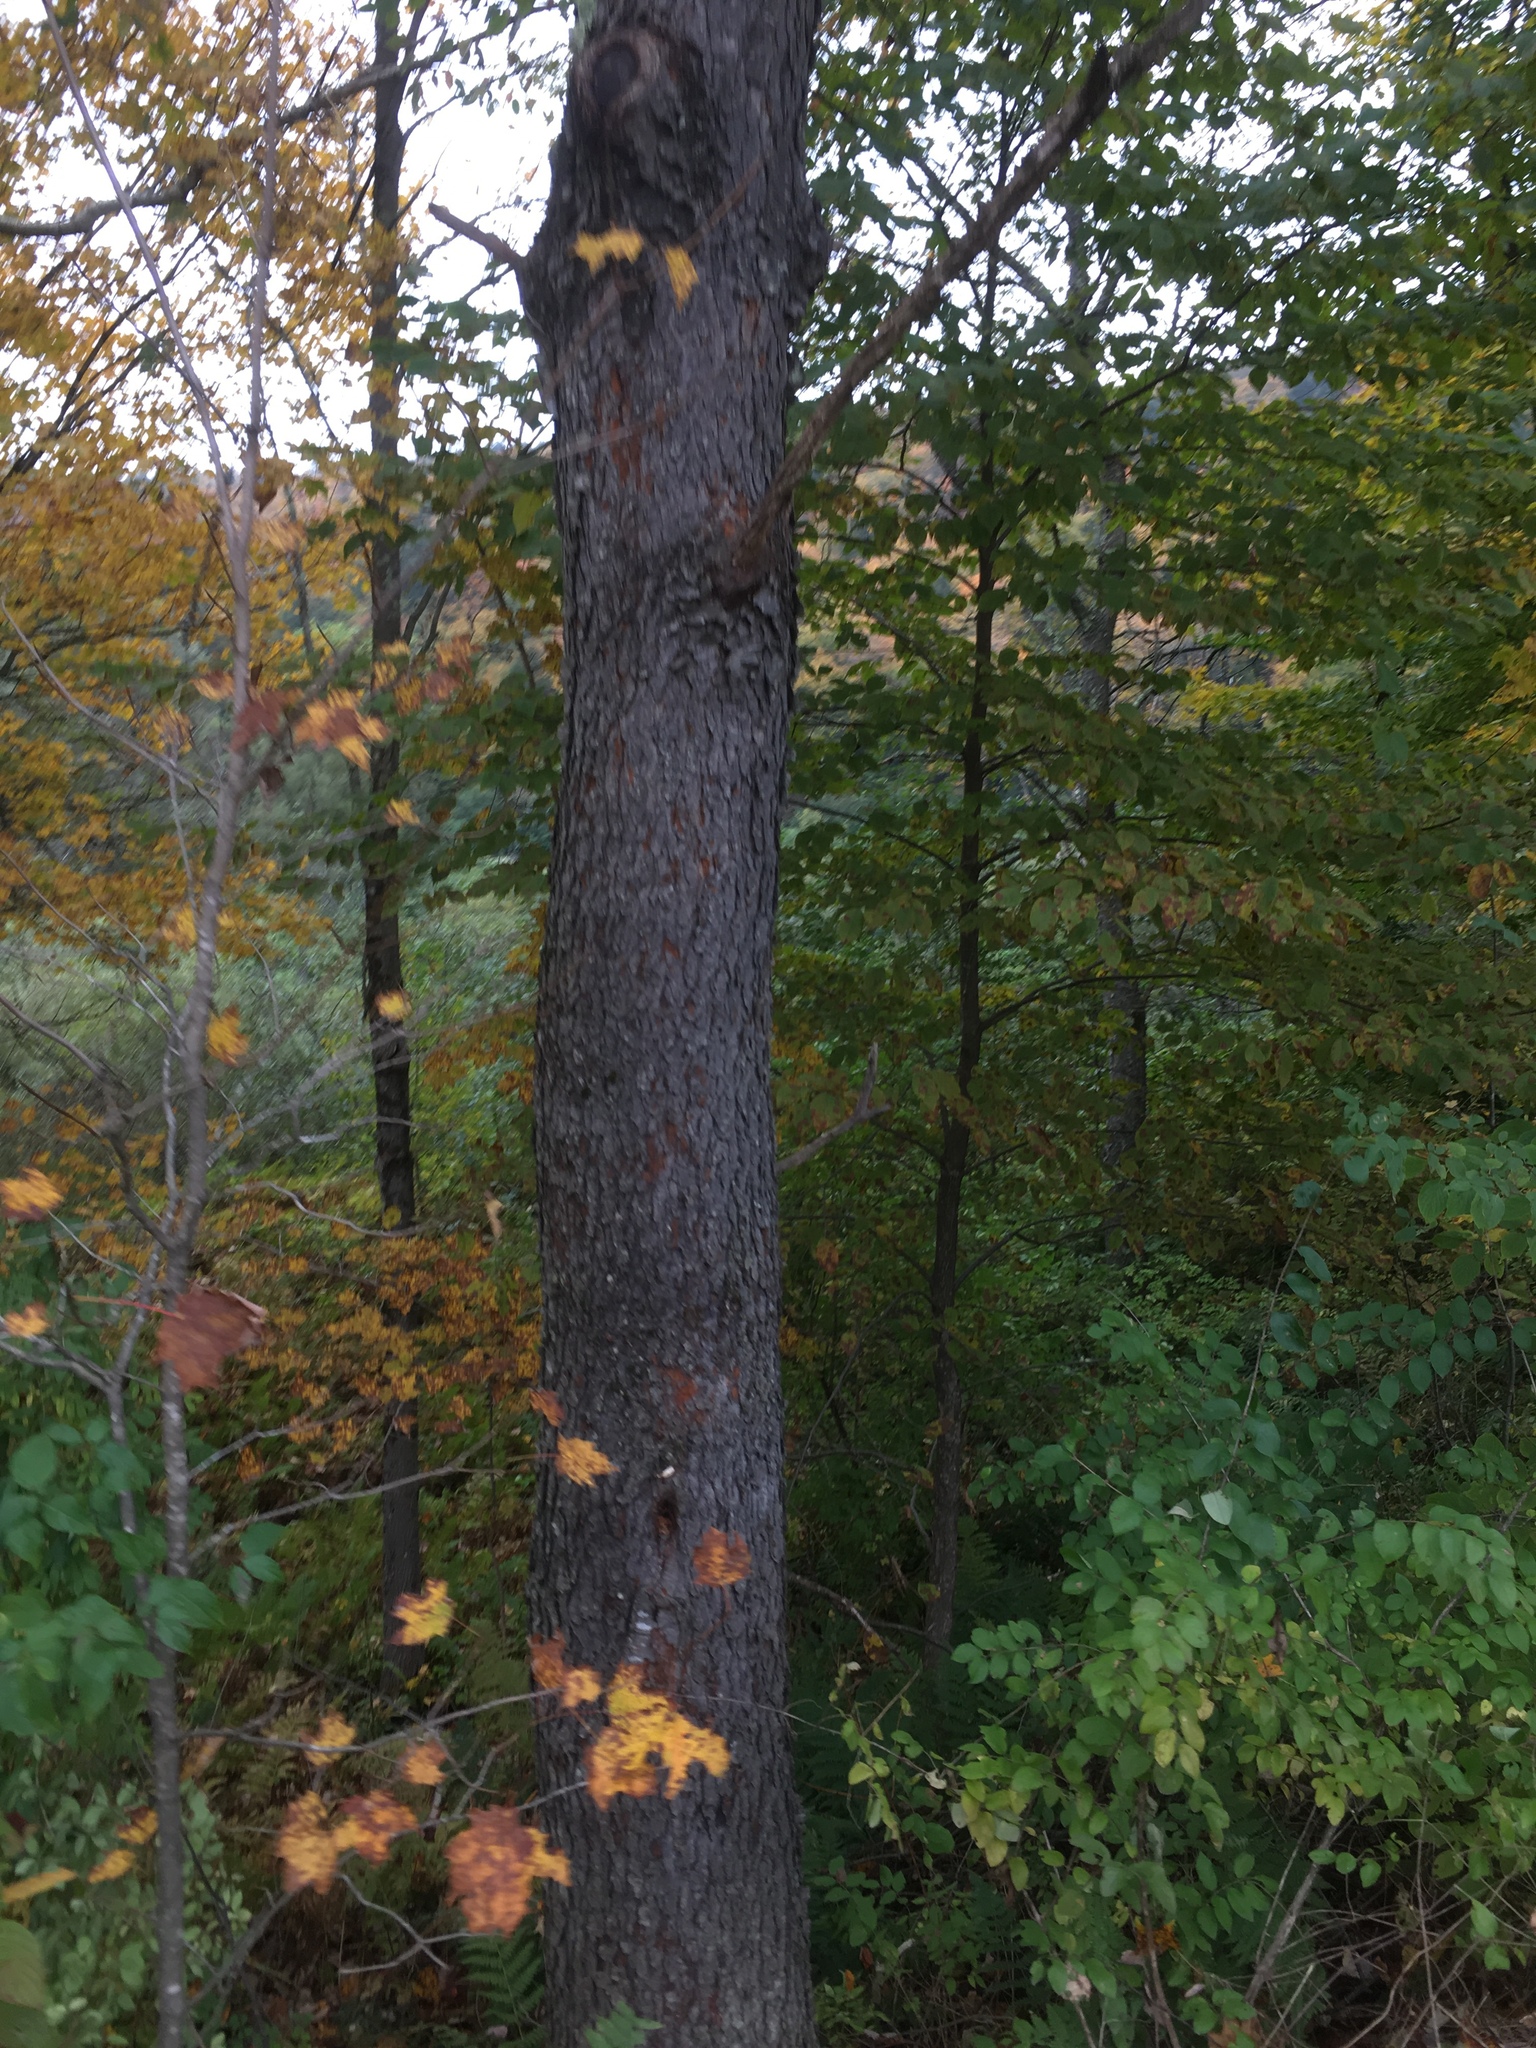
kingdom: Plantae
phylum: Tracheophyta
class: Magnoliopsida
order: Rosales
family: Rosaceae
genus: Prunus
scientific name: Prunus serotina
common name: Black cherry
